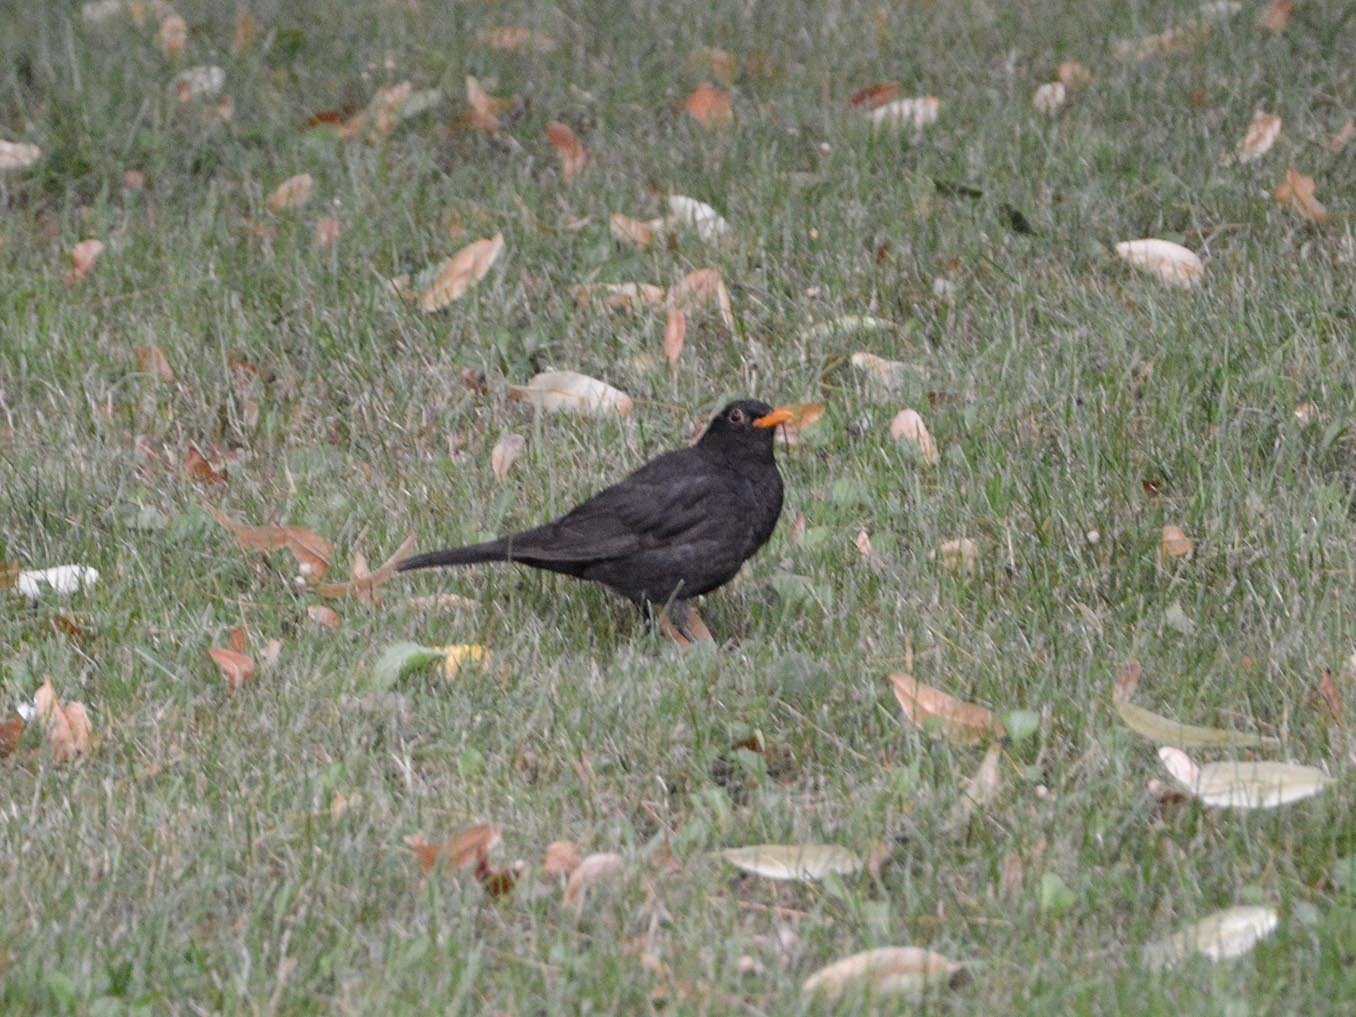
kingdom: Animalia
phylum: Chordata
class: Aves
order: Passeriformes
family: Turdidae
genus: Turdus
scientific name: Turdus merula
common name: Common blackbird
